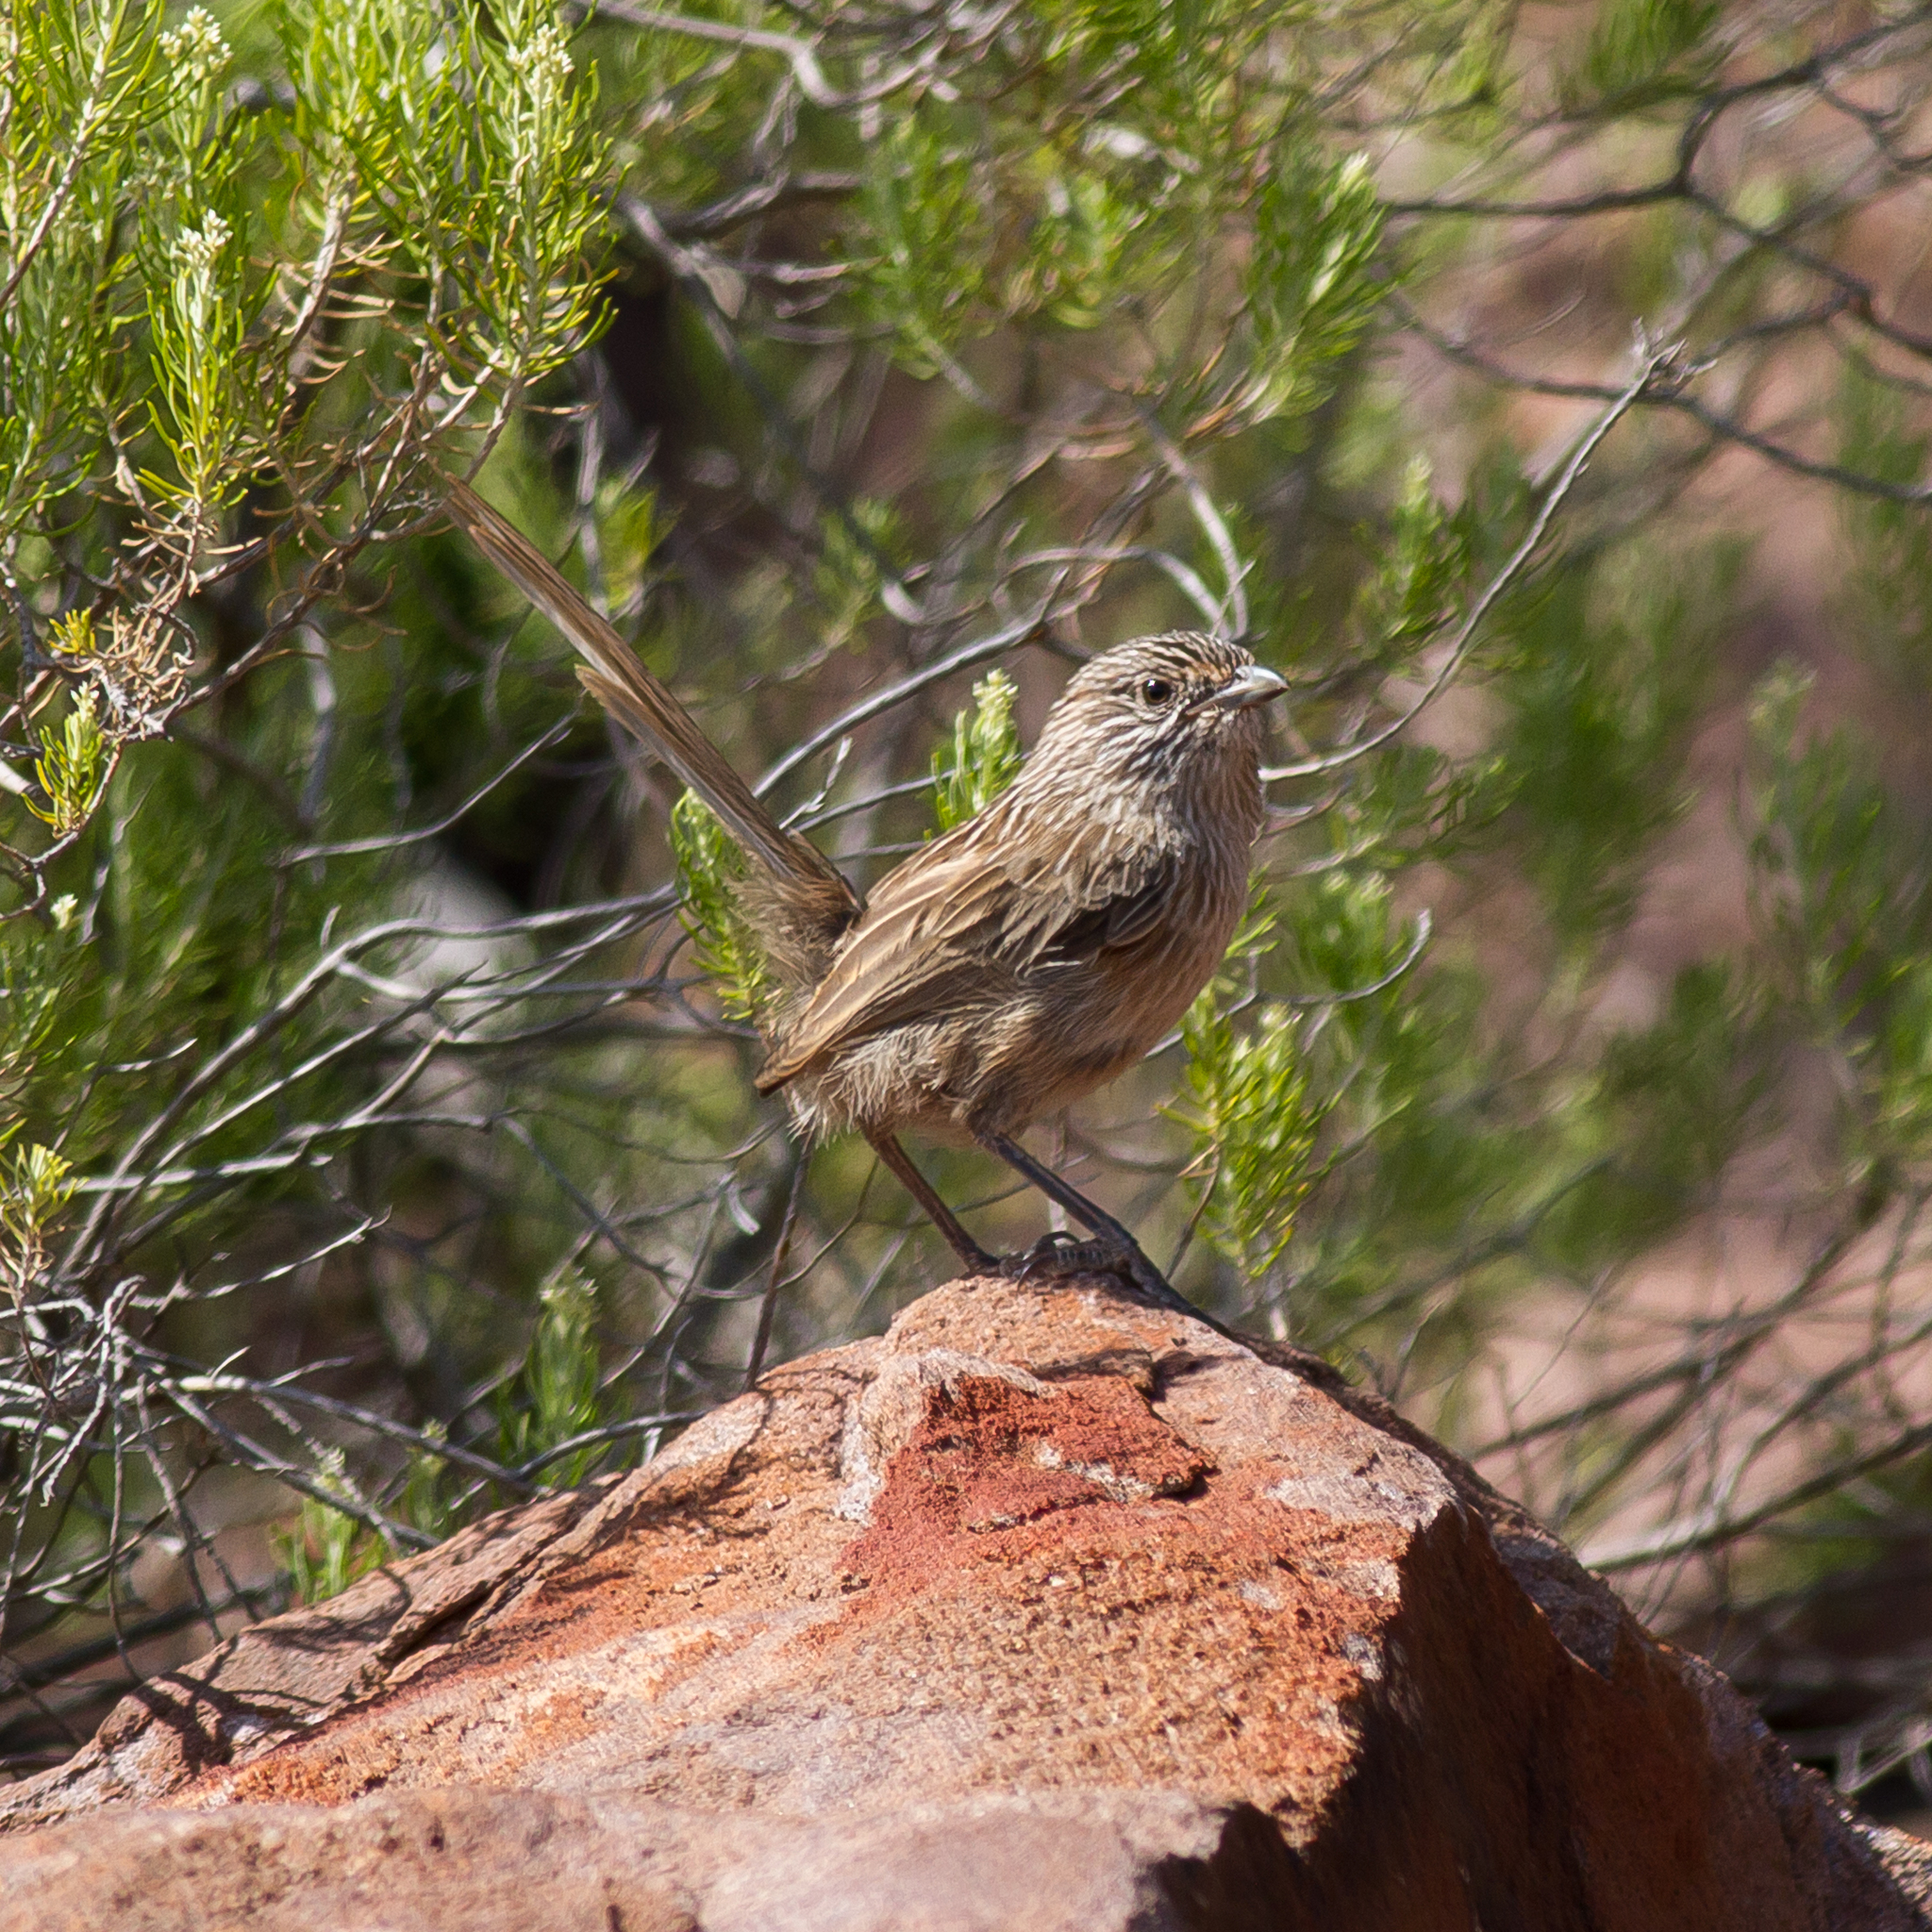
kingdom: Animalia
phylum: Chordata
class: Aves
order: Passeriformes
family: Maluridae
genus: Amytornis
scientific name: Amytornis textilis
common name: Western grasswren
